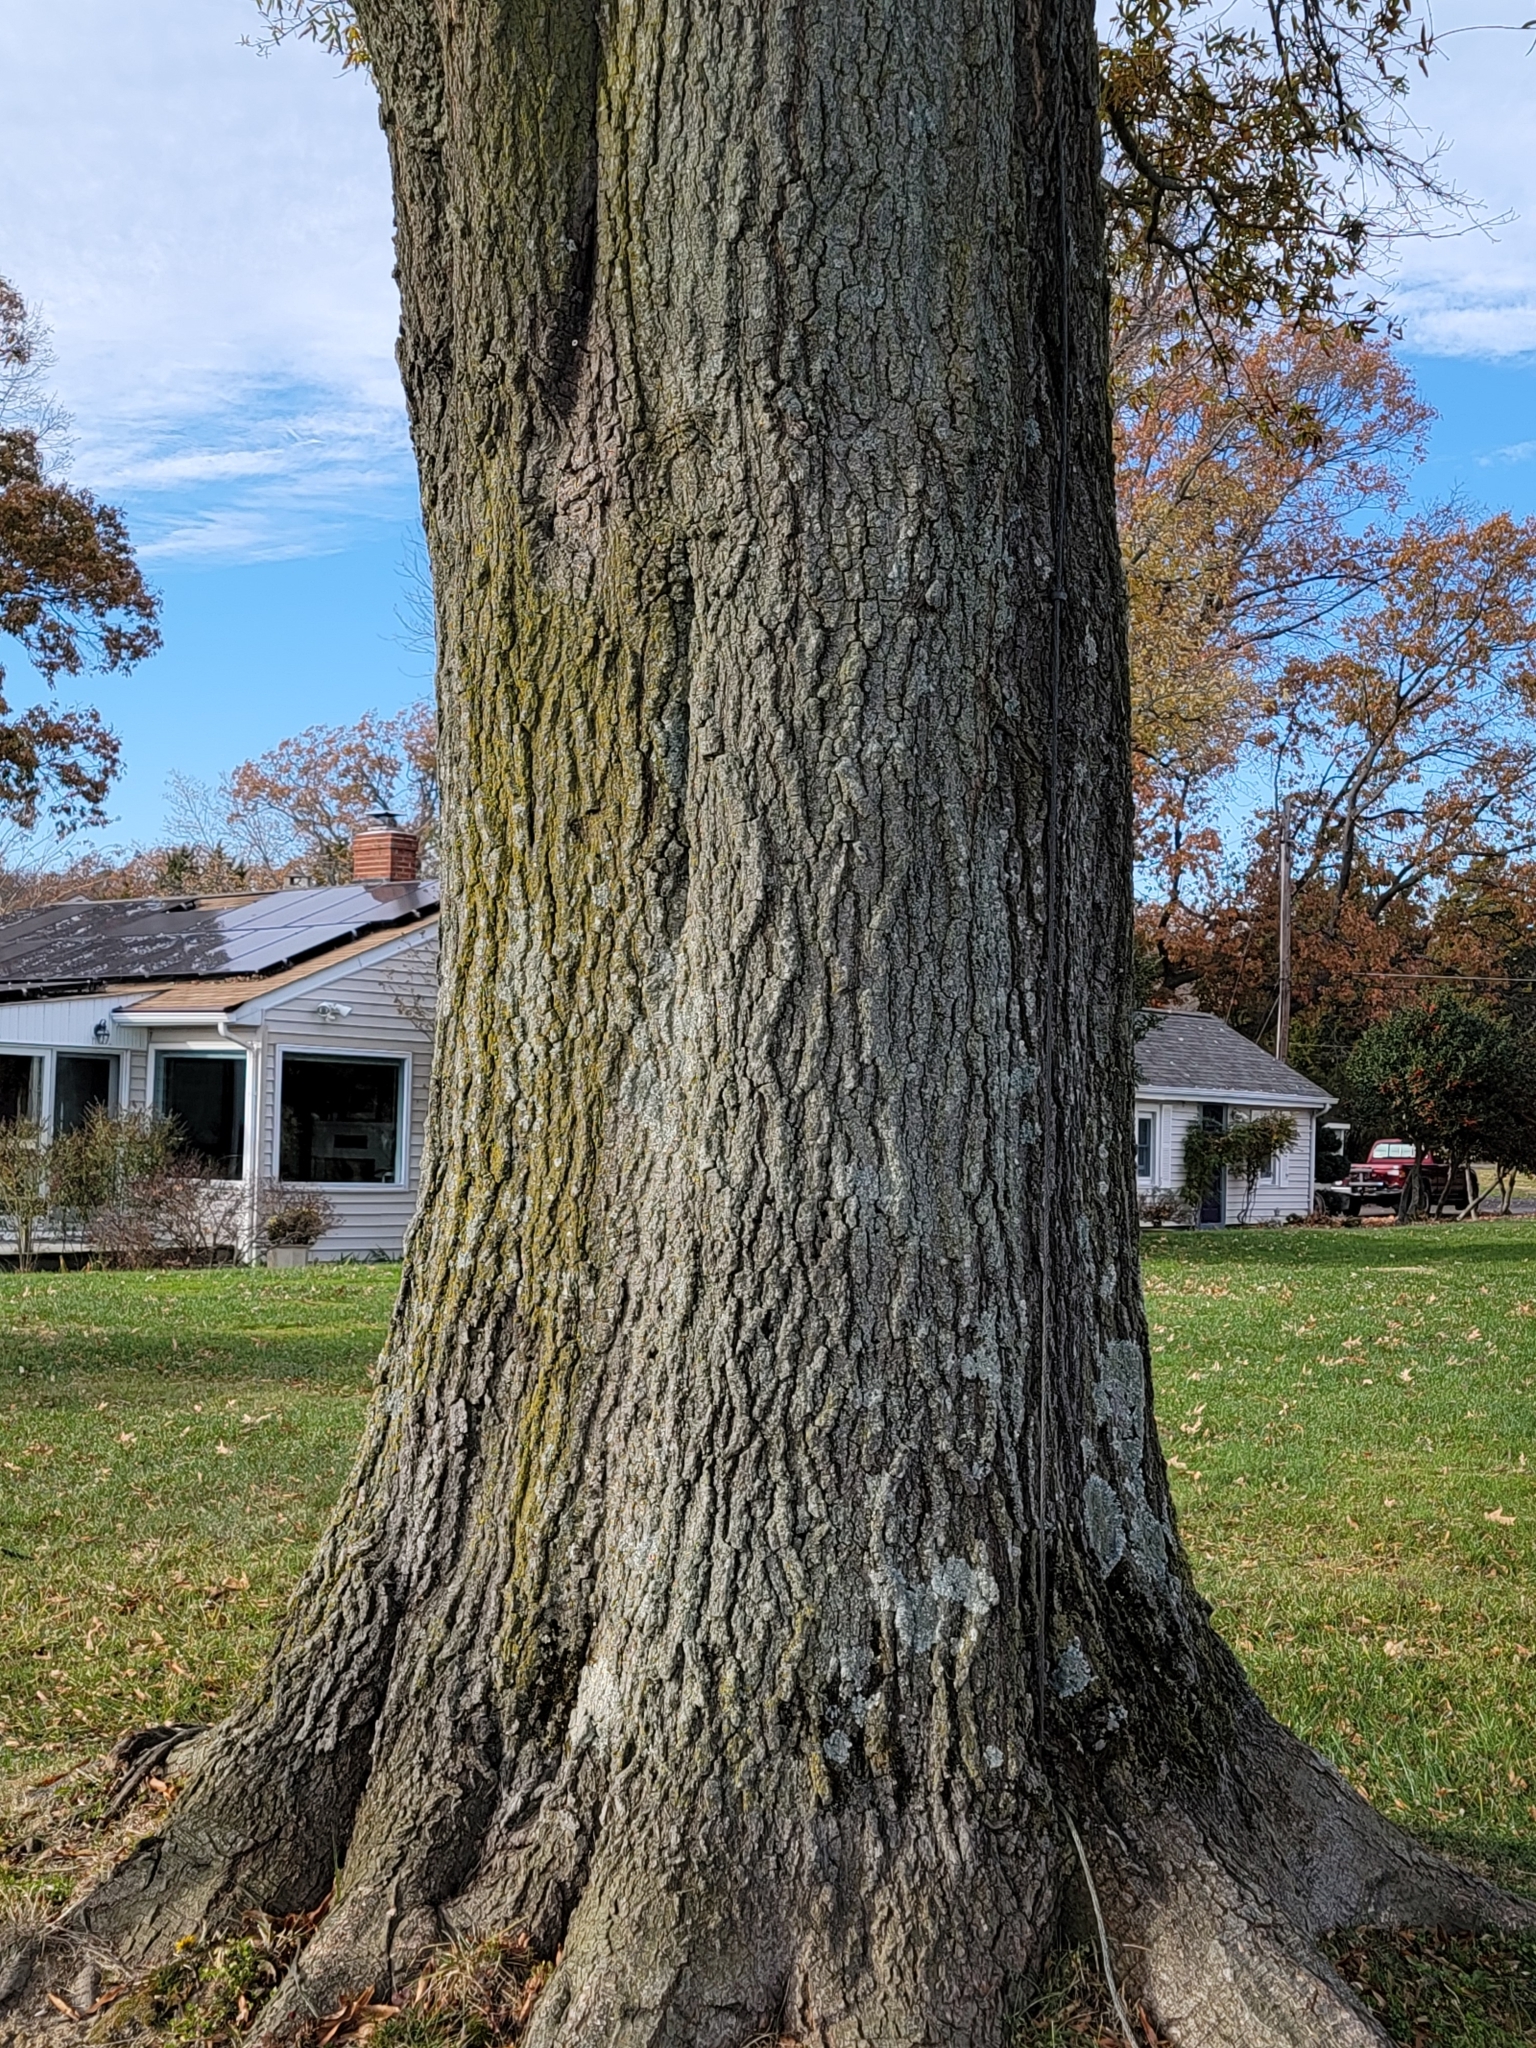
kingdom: Plantae
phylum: Tracheophyta
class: Magnoliopsida
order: Fagales
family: Fagaceae
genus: Quercus
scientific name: Quercus phellos
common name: Willow oak
